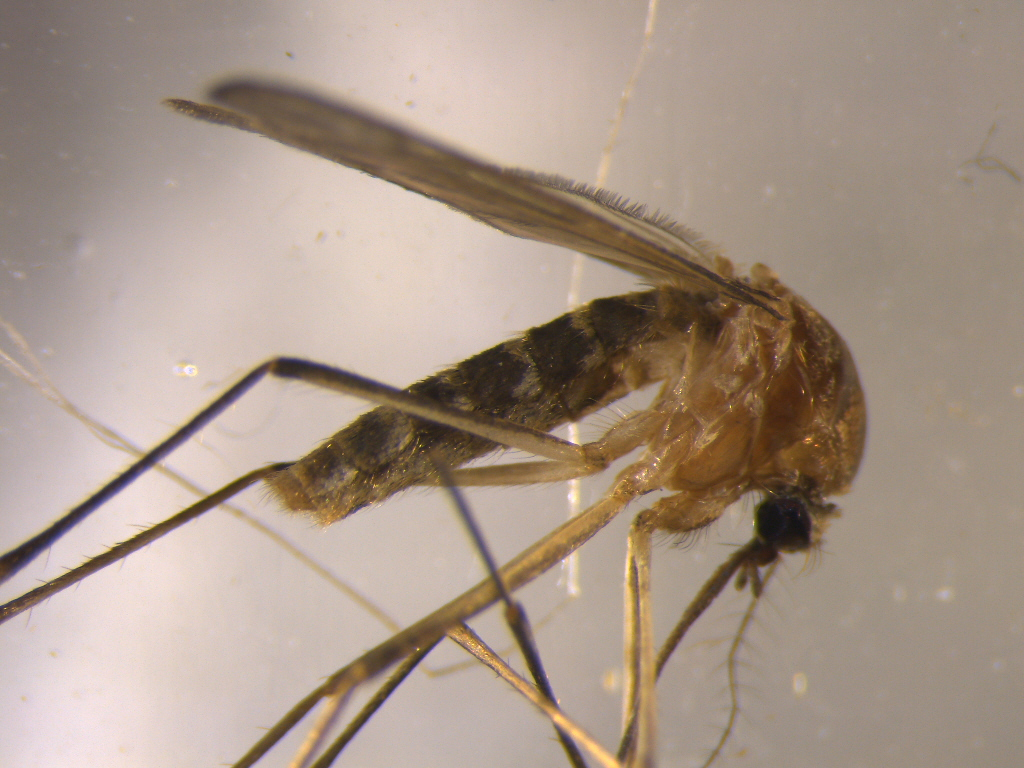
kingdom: Animalia
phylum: Arthropoda
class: Insecta
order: Diptera
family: Culicidae
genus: Culex
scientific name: Culex quinquefasciatus
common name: Southern house mosquito
